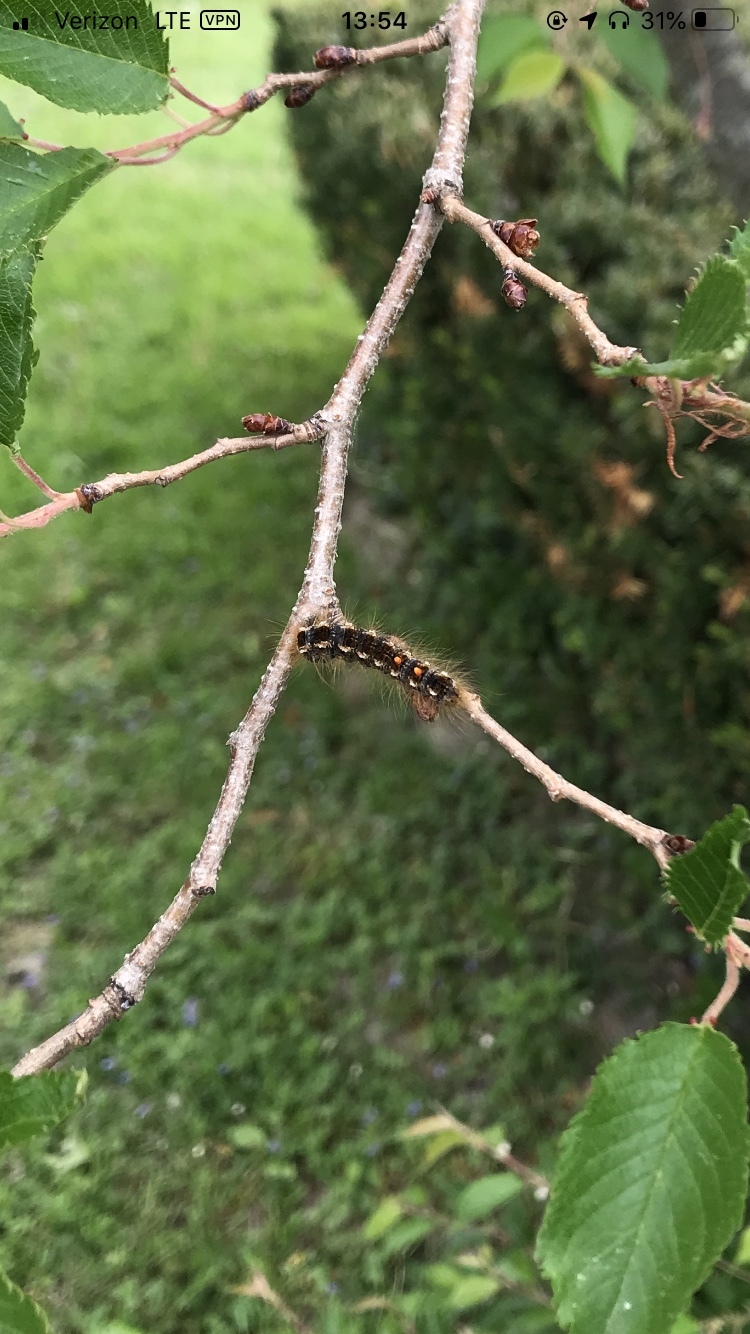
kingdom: Animalia
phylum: Arthropoda
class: Insecta
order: Lepidoptera
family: Erebidae
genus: Euproctis
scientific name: Euproctis chrysorrhoea
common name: Brown-tail
